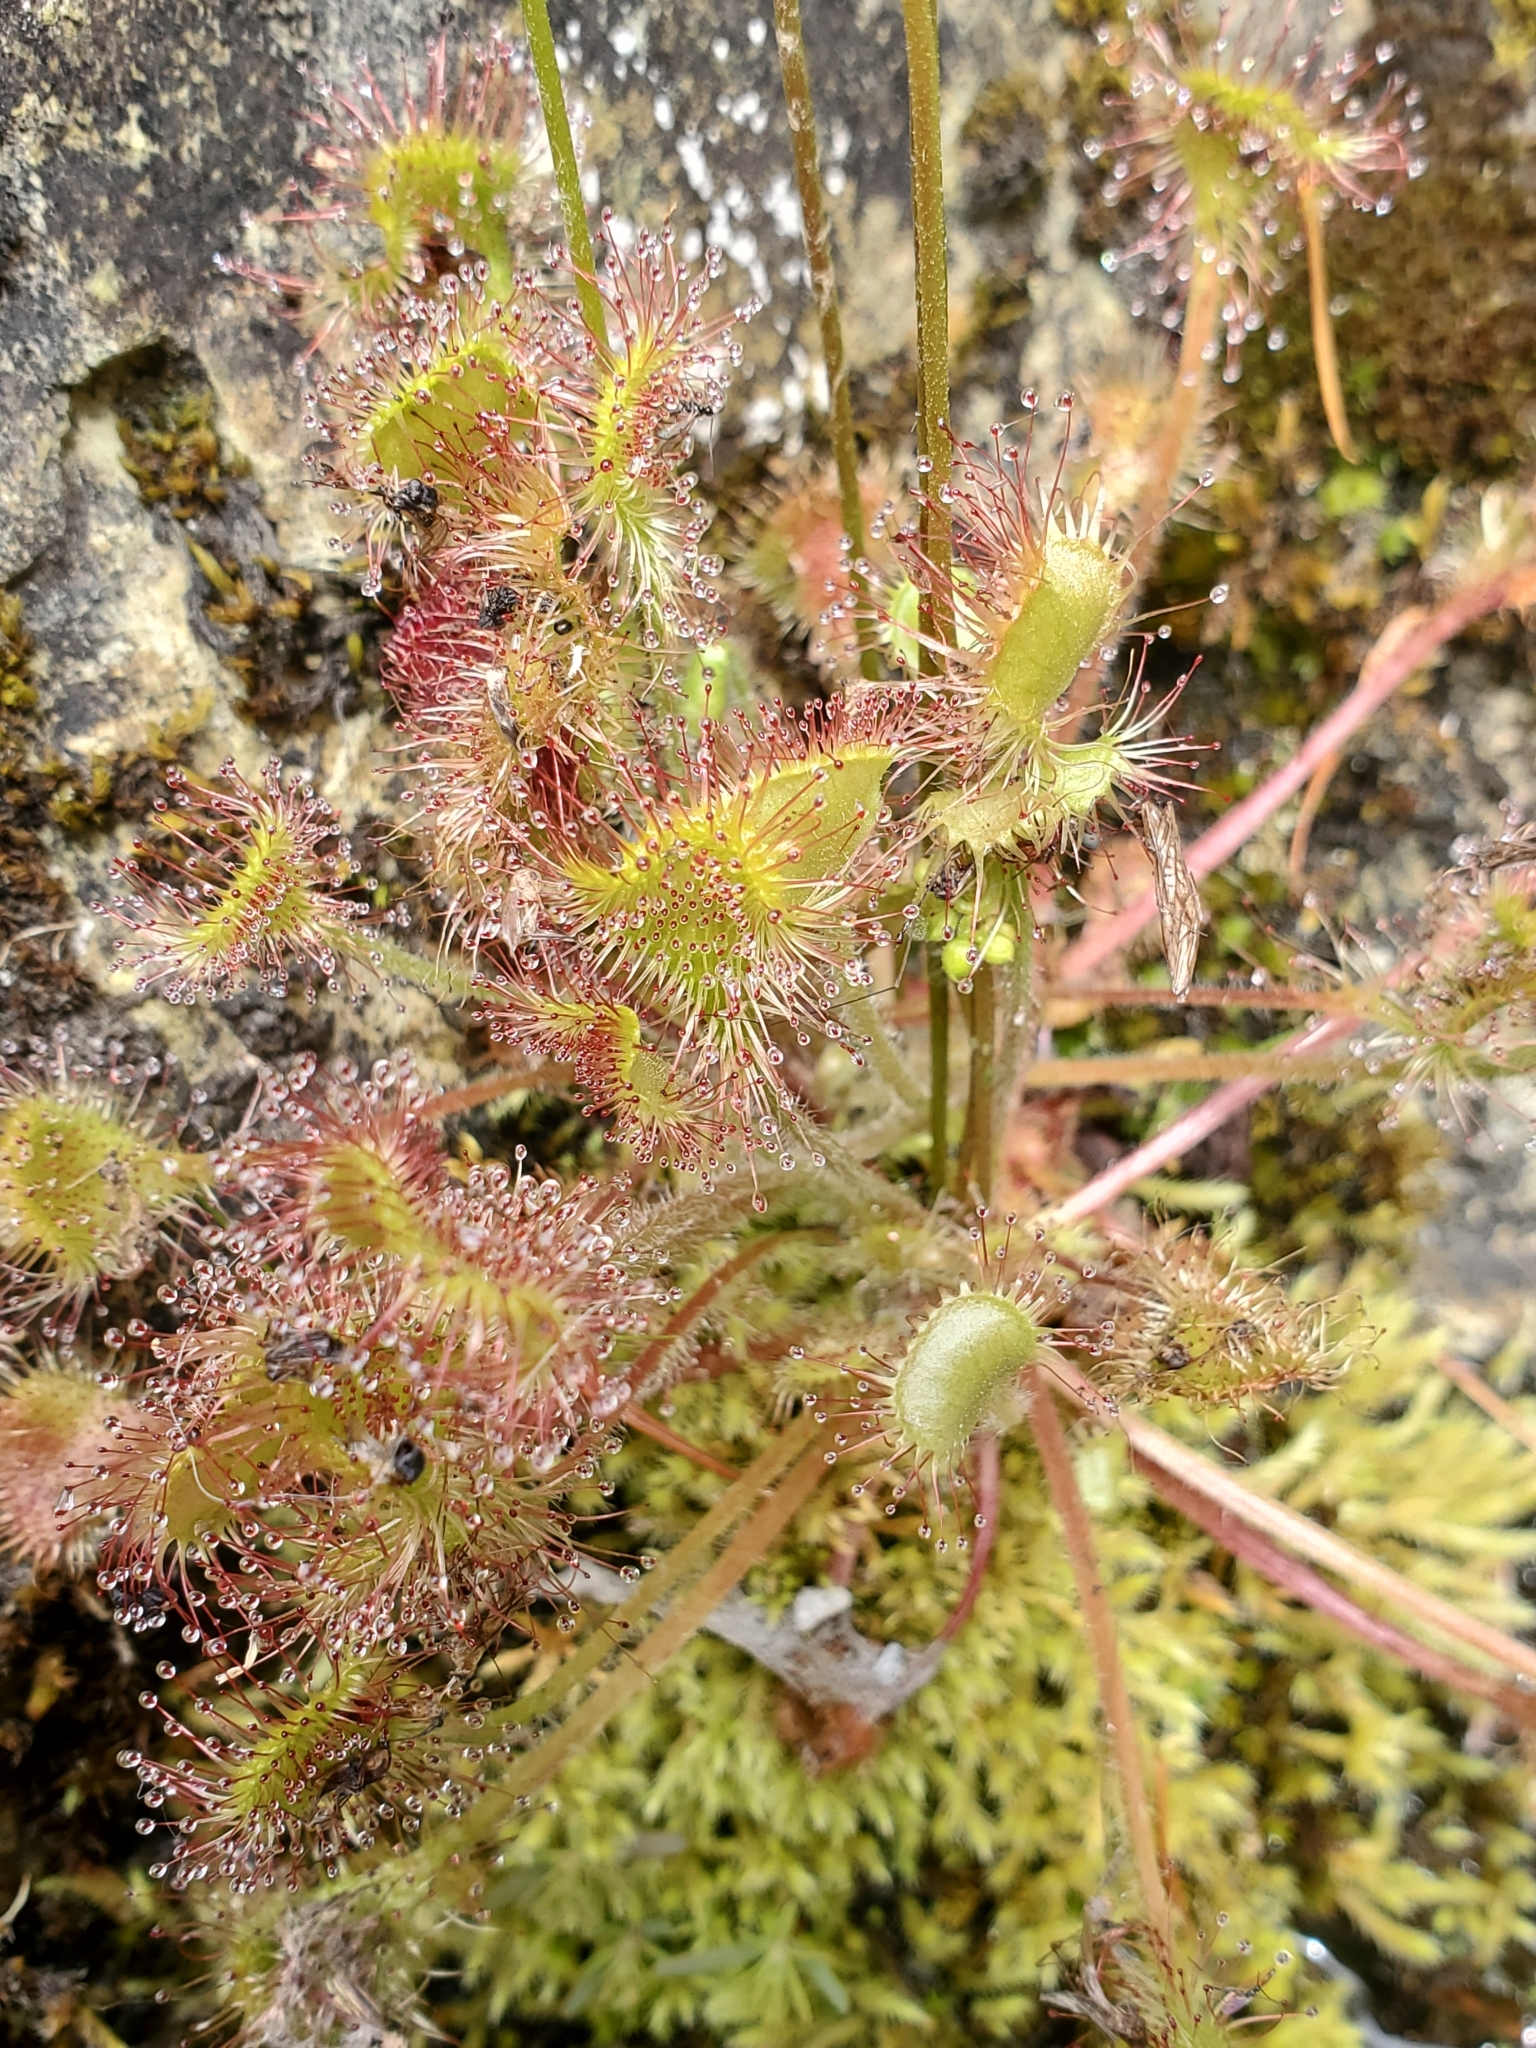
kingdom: Plantae
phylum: Tracheophyta
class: Magnoliopsida
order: Caryophyllales
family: Droseraceae
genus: Drosera
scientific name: Drosera rotundifolia
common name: Round-leaved sundew
